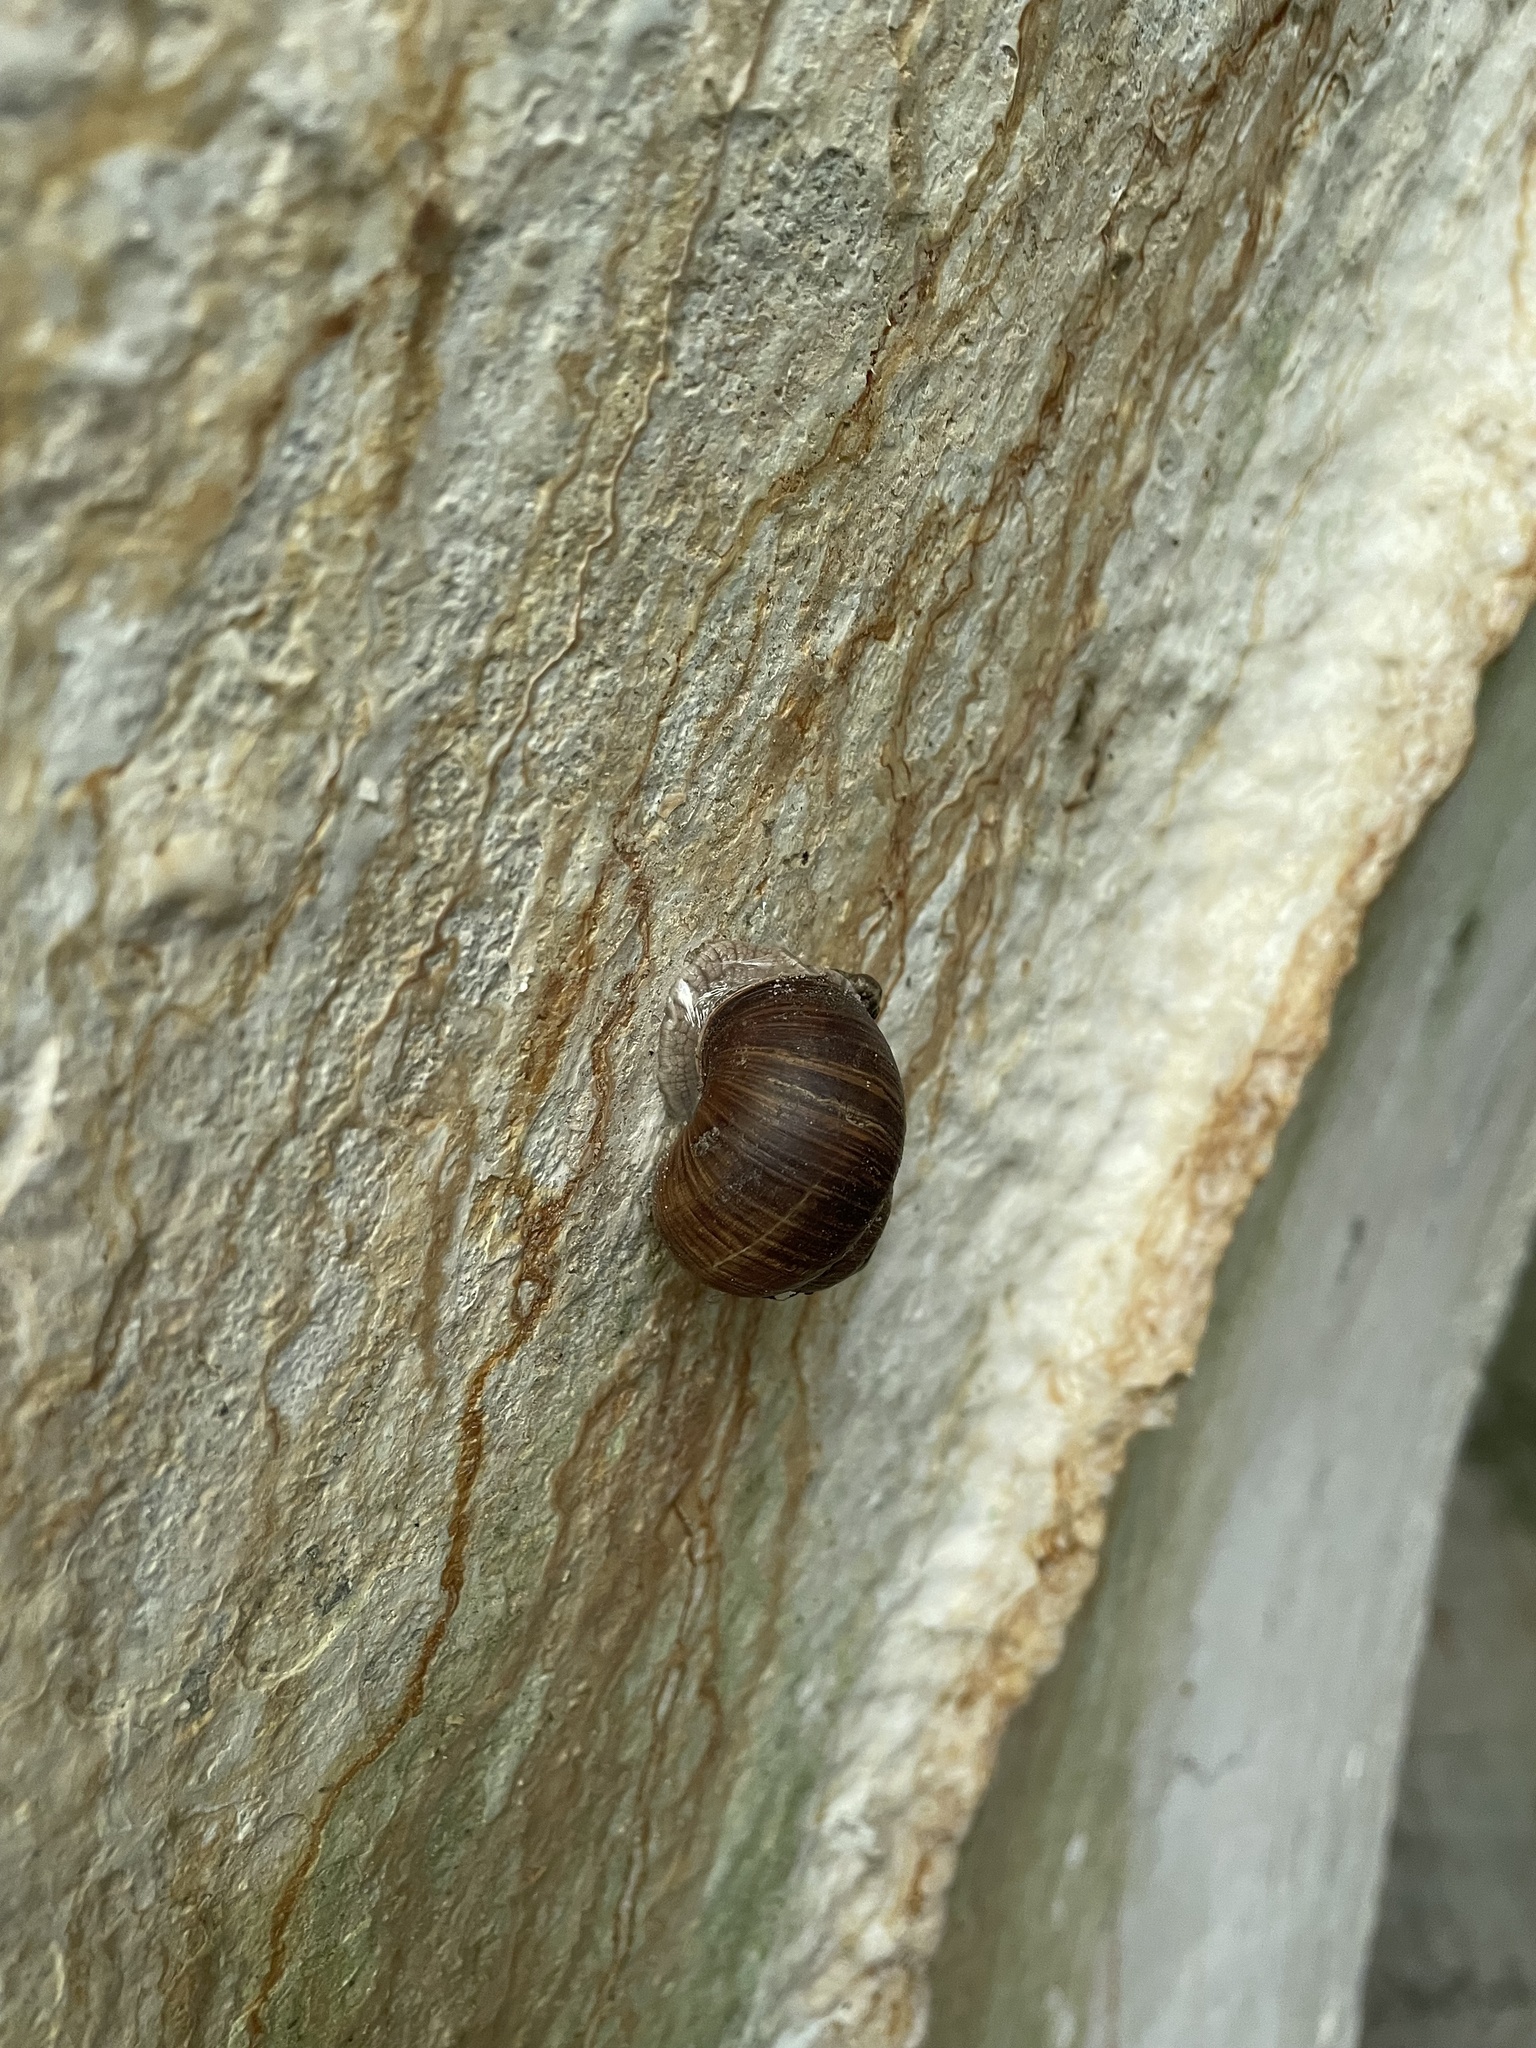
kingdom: Animalia
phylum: Mollusca
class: Gastropoda
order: Stylommatophora
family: Helicidae
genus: Helix
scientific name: Helix pomatia
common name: Roman snail
